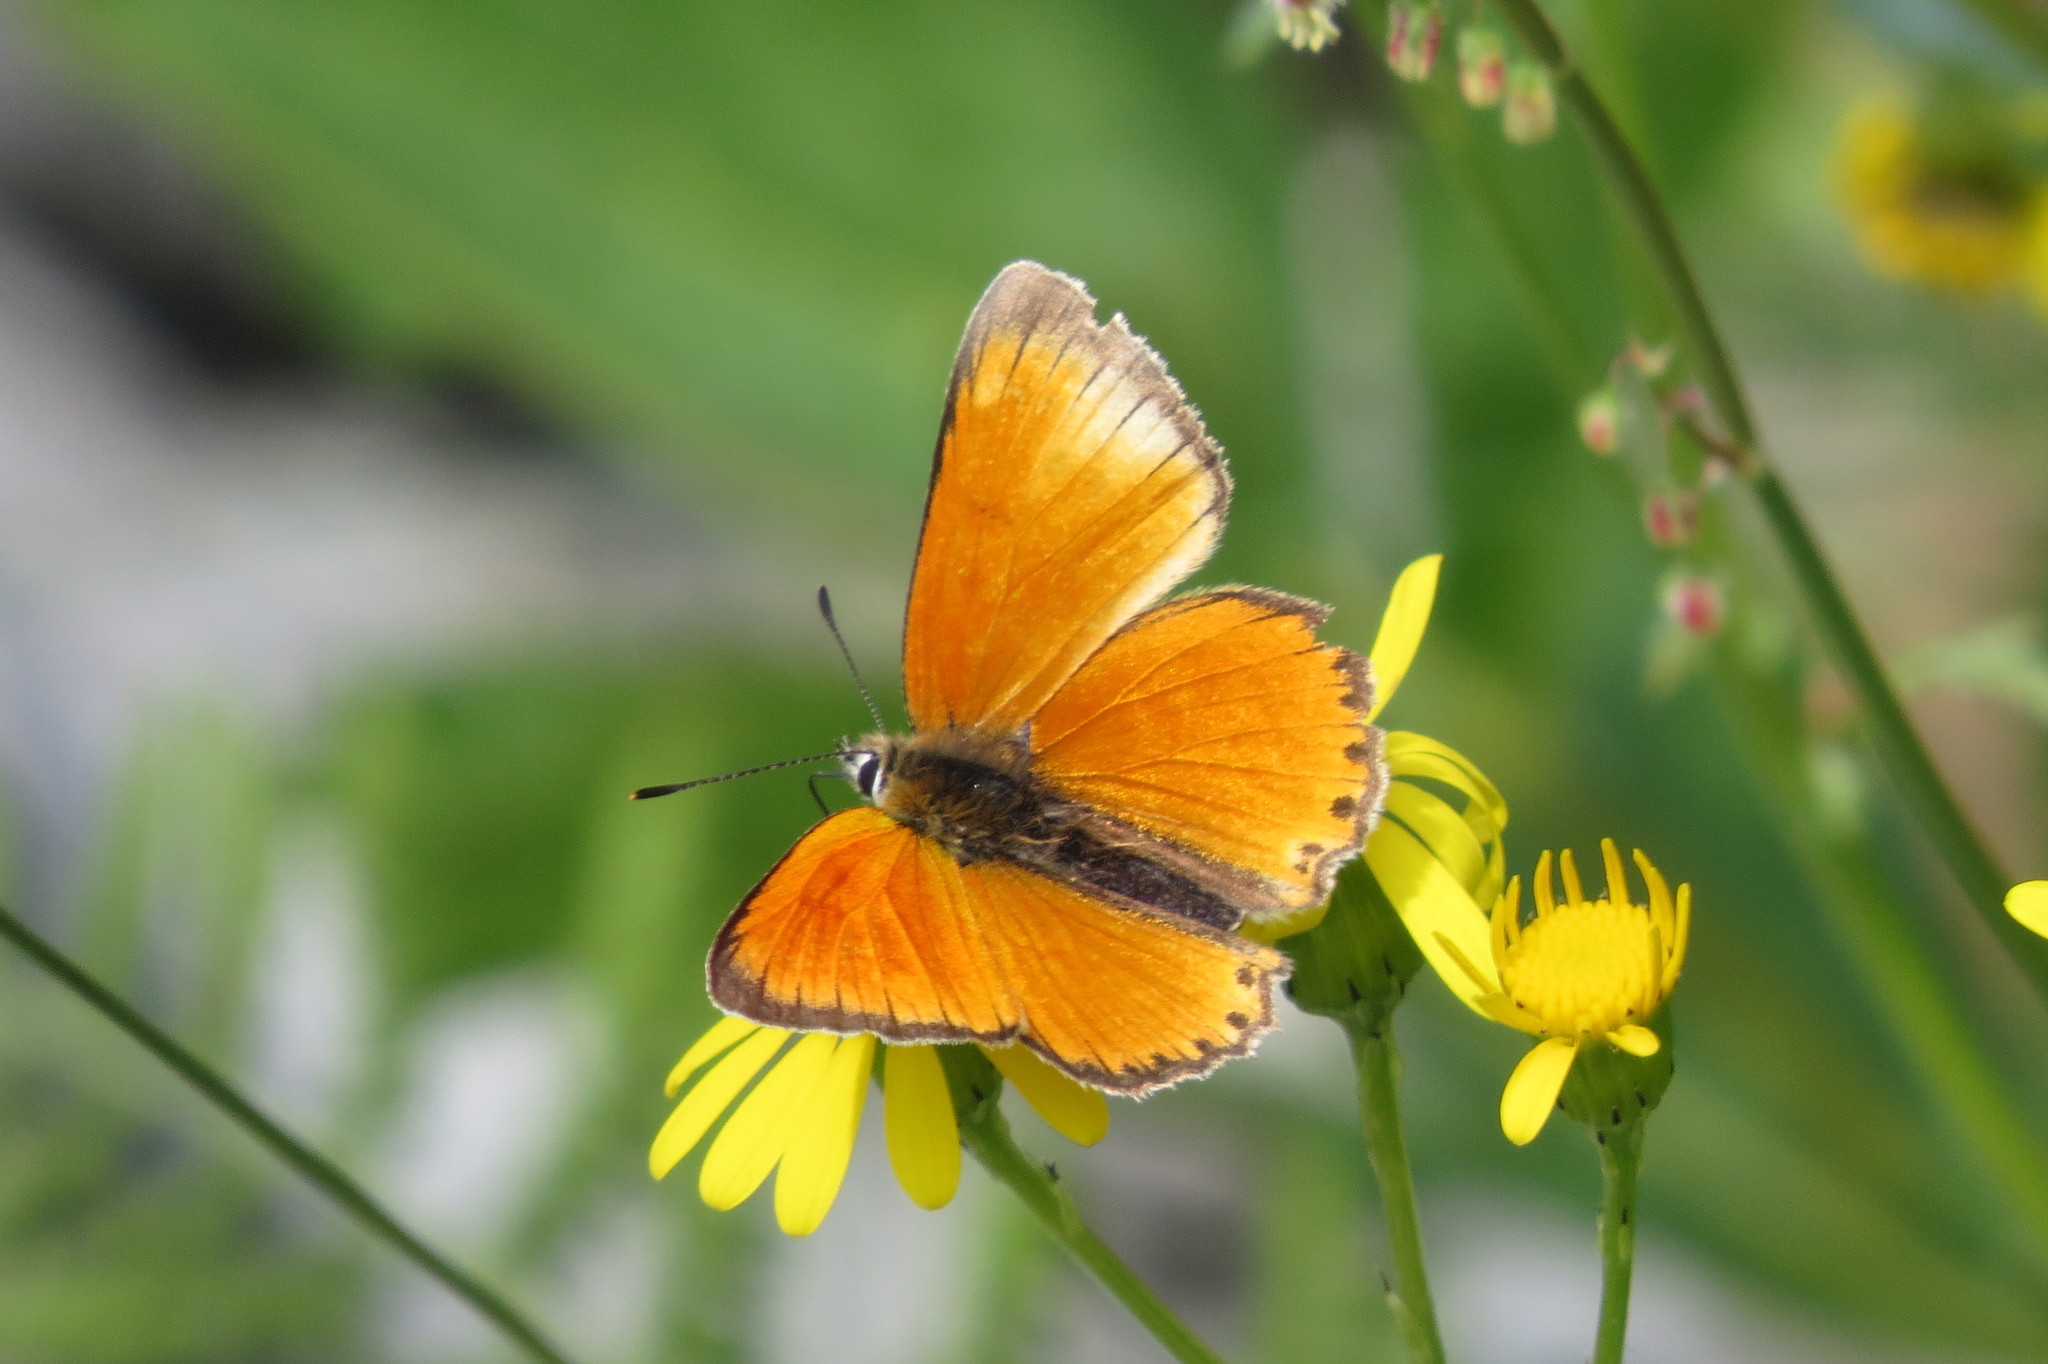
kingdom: Animalia
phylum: Arthropoda
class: Insecta
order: Lepidoptera
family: Lycaenidae
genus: Lycaena
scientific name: Lycaena virgaureae
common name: Scarce copper
